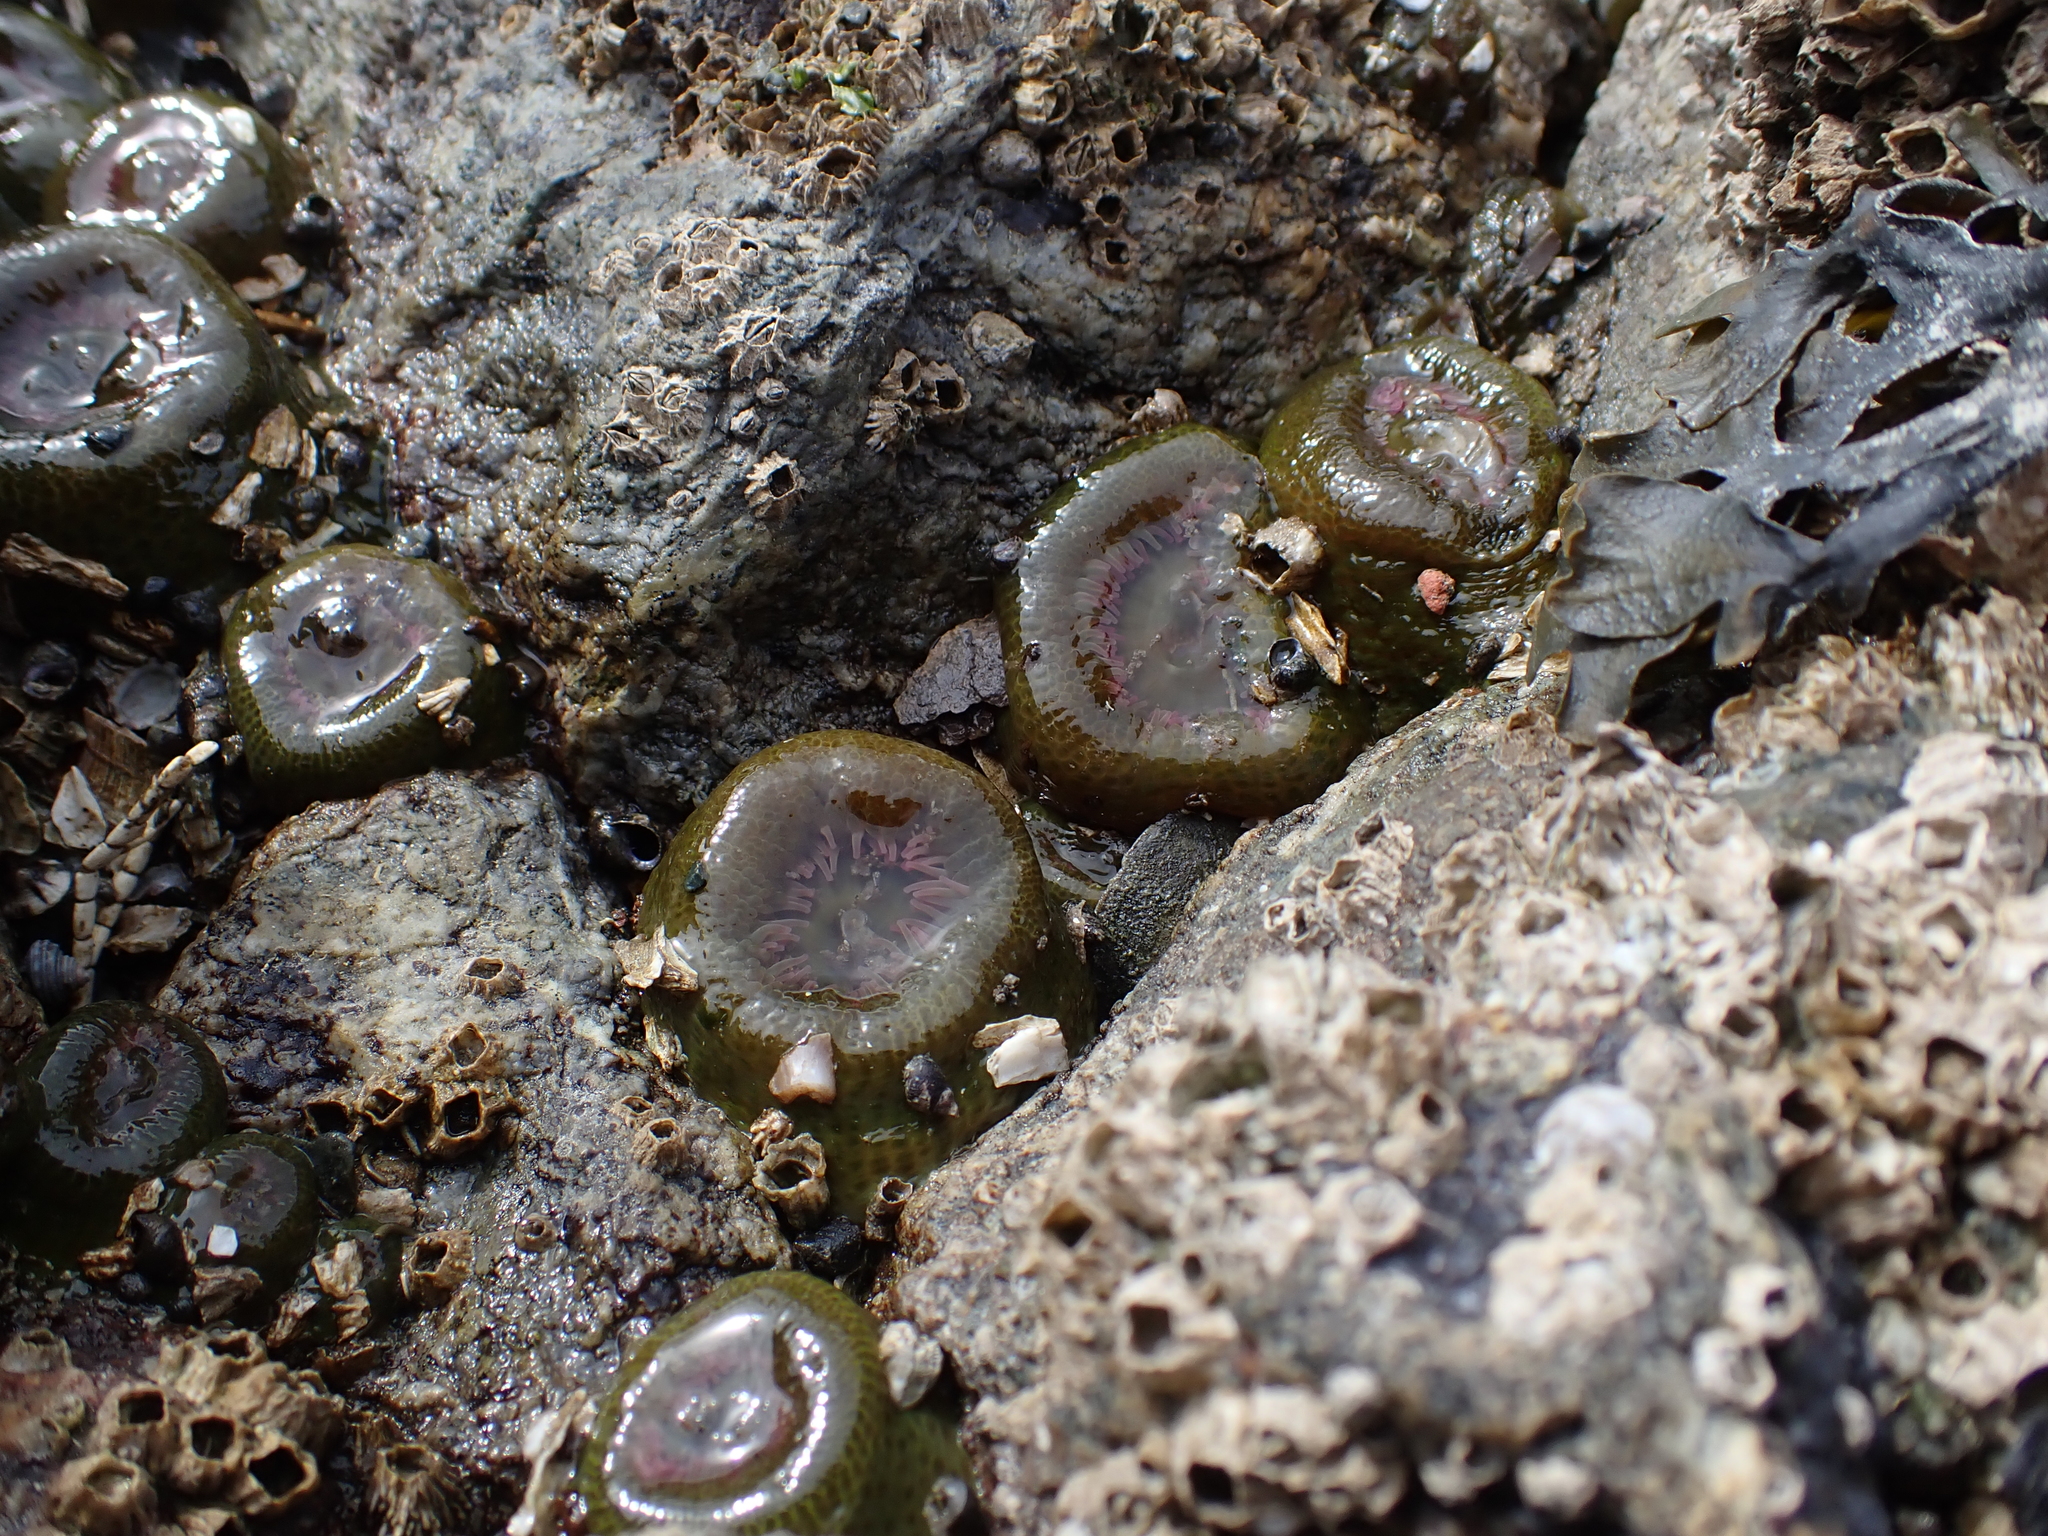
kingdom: Animalia
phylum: Cnidaria
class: Anthozoa
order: Actiniaria
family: Actiniidae
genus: Anthopleura
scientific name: Anthopleura elegantissima
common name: Clonal anemone
